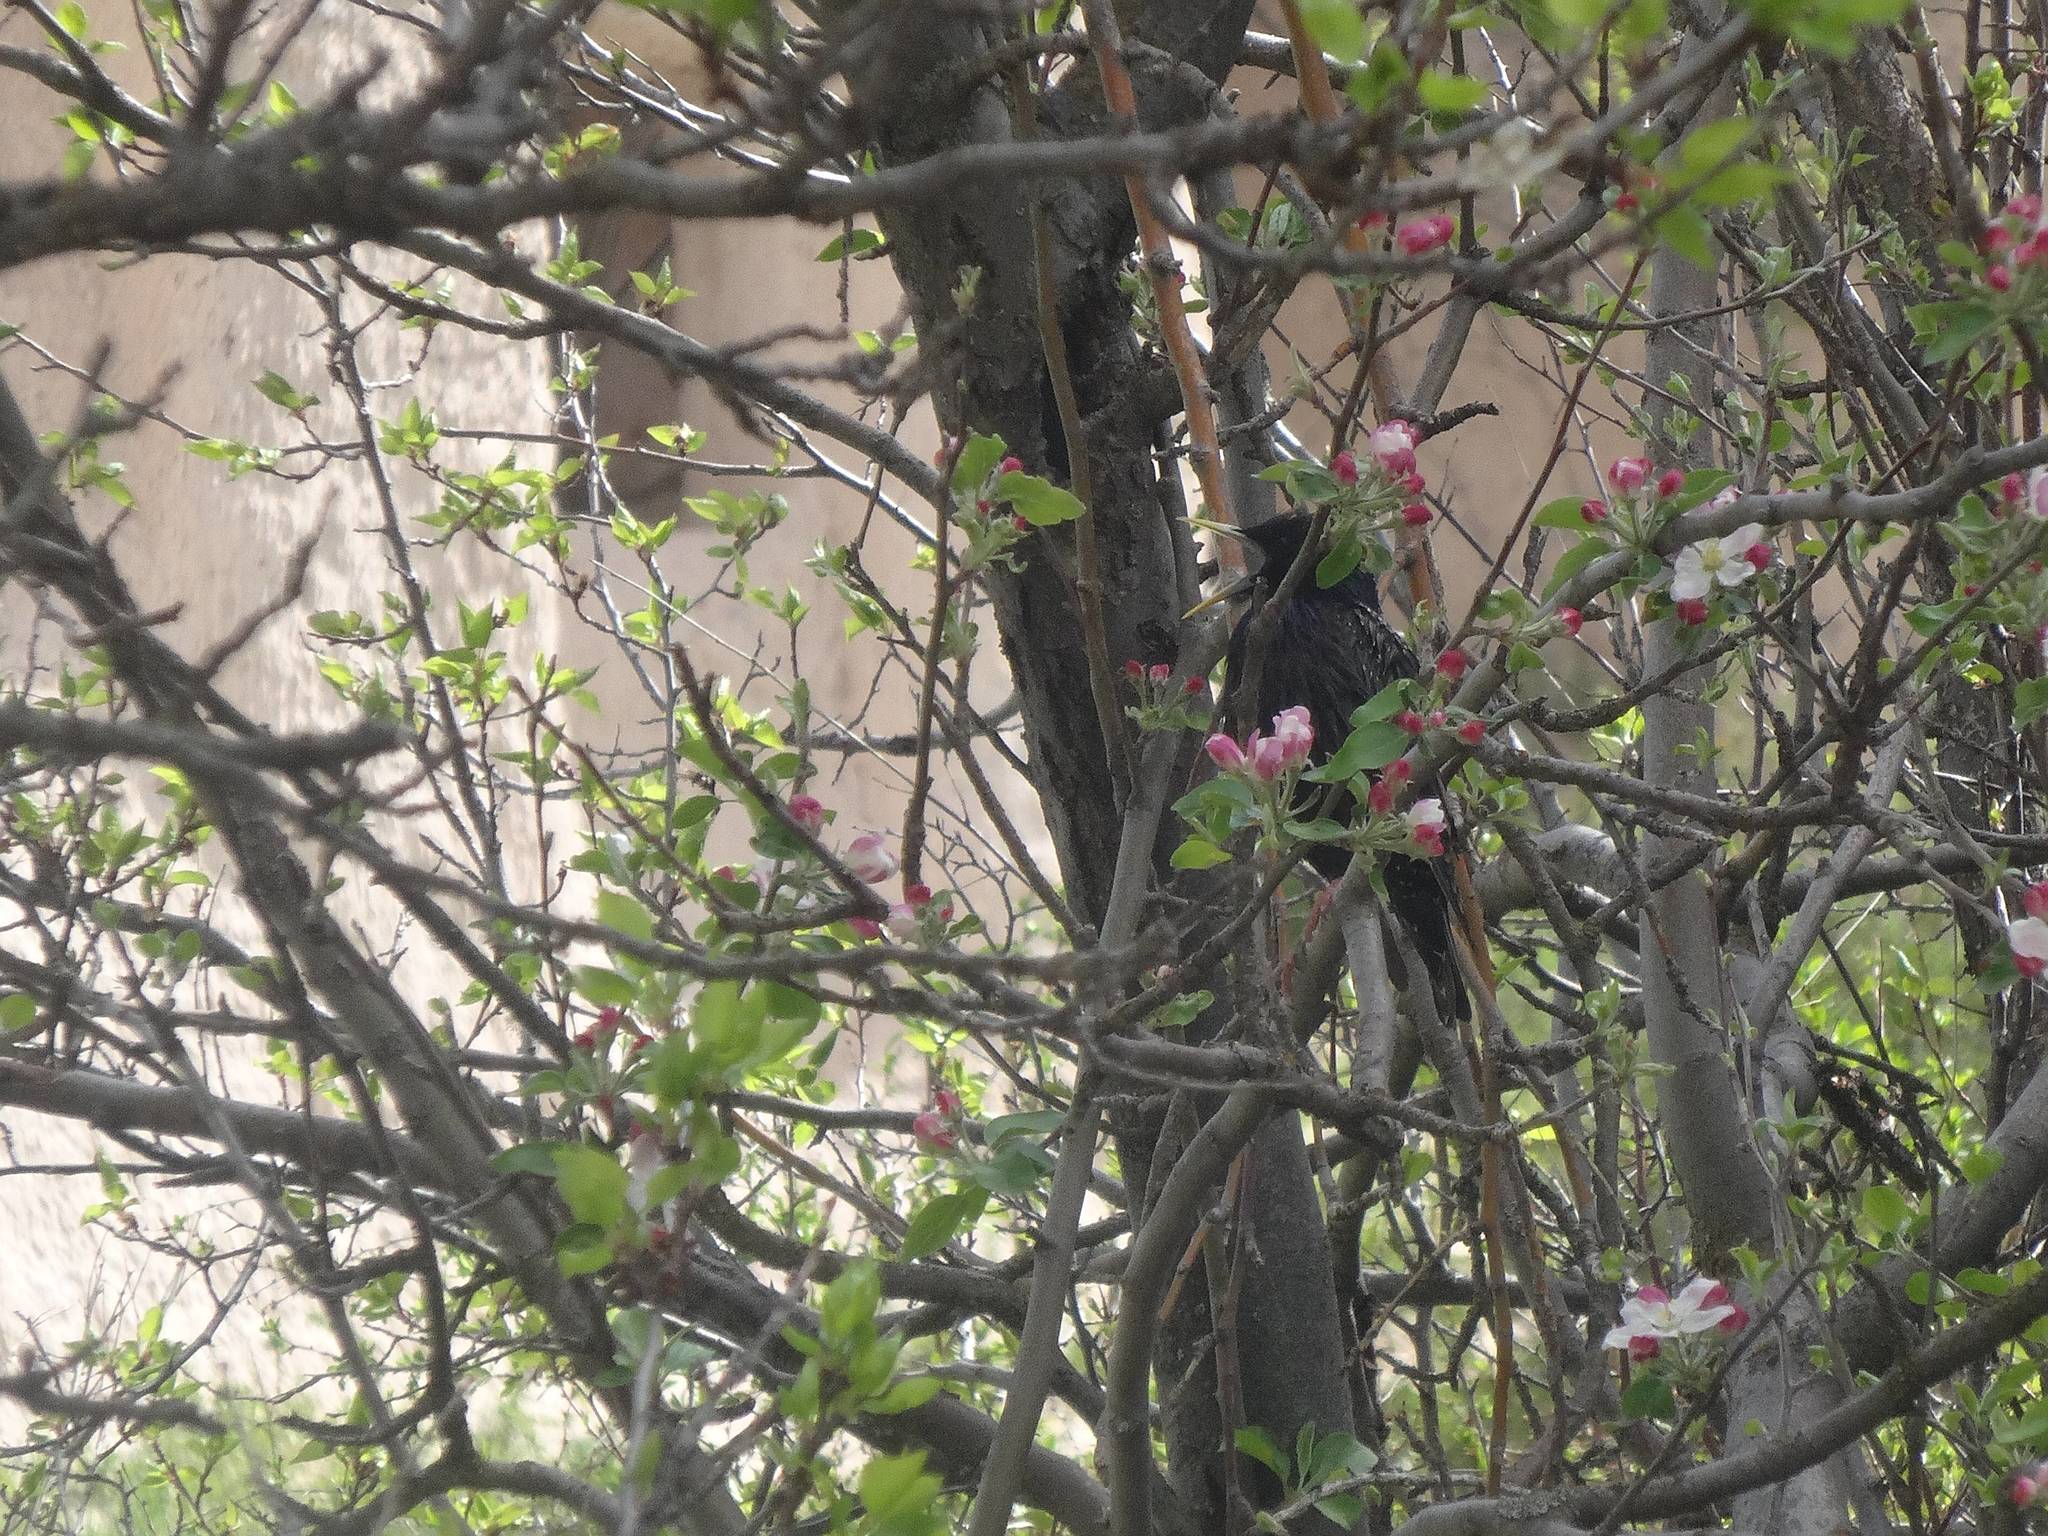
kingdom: Animalia
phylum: Chordata
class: Aves
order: Passeriformes
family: Sturnidae
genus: Sturnus
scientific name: Sturnus vulgaris
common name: Common starling
